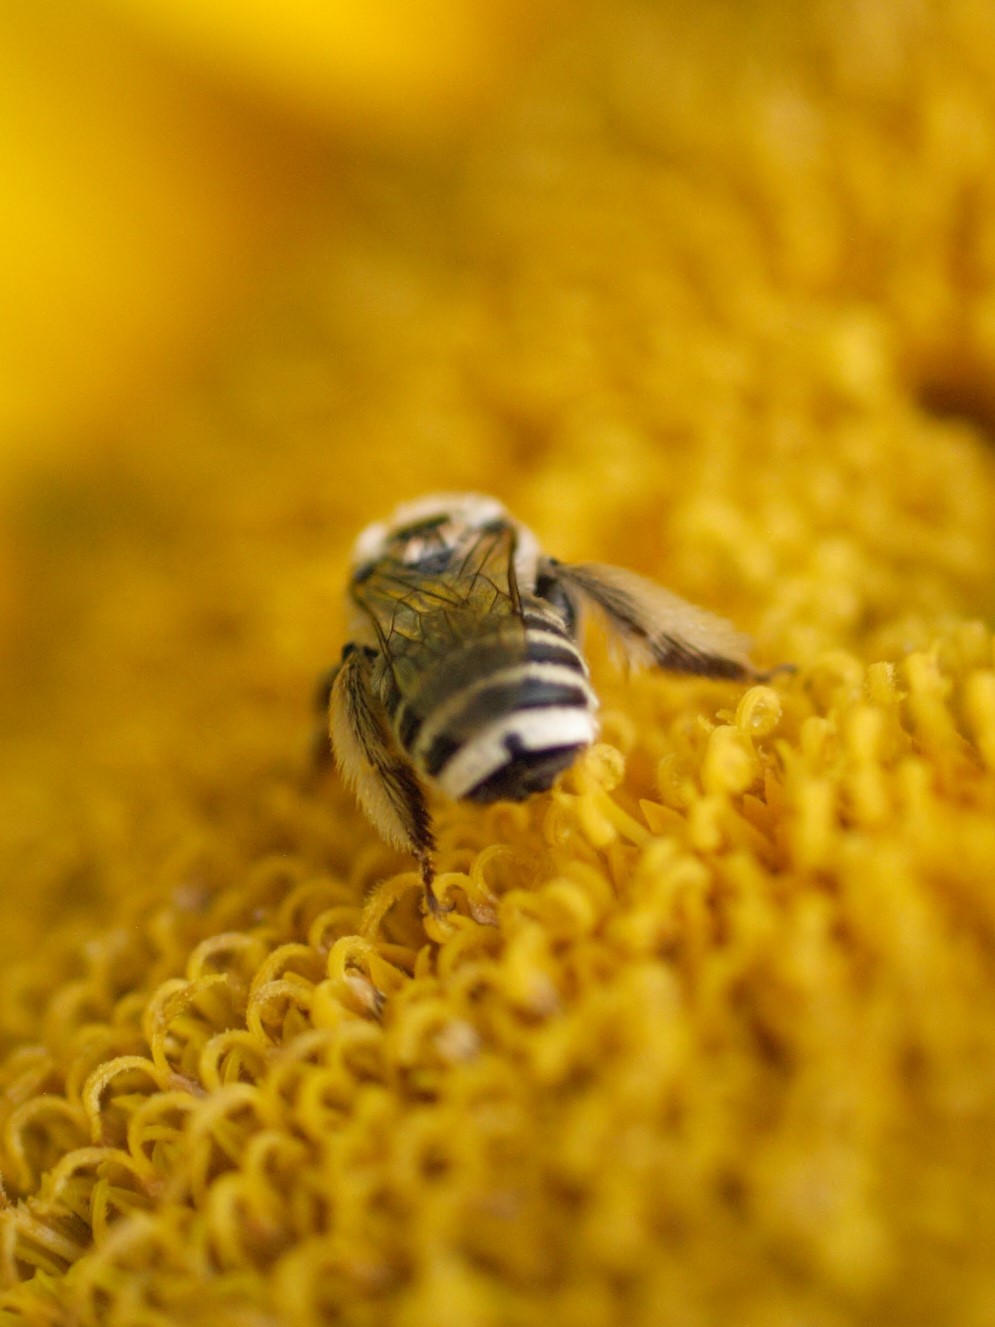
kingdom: Animalia
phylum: Arthropoda
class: Insecta
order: Hymenoptera
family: Apidae
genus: Melissodes
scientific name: Melissodes
